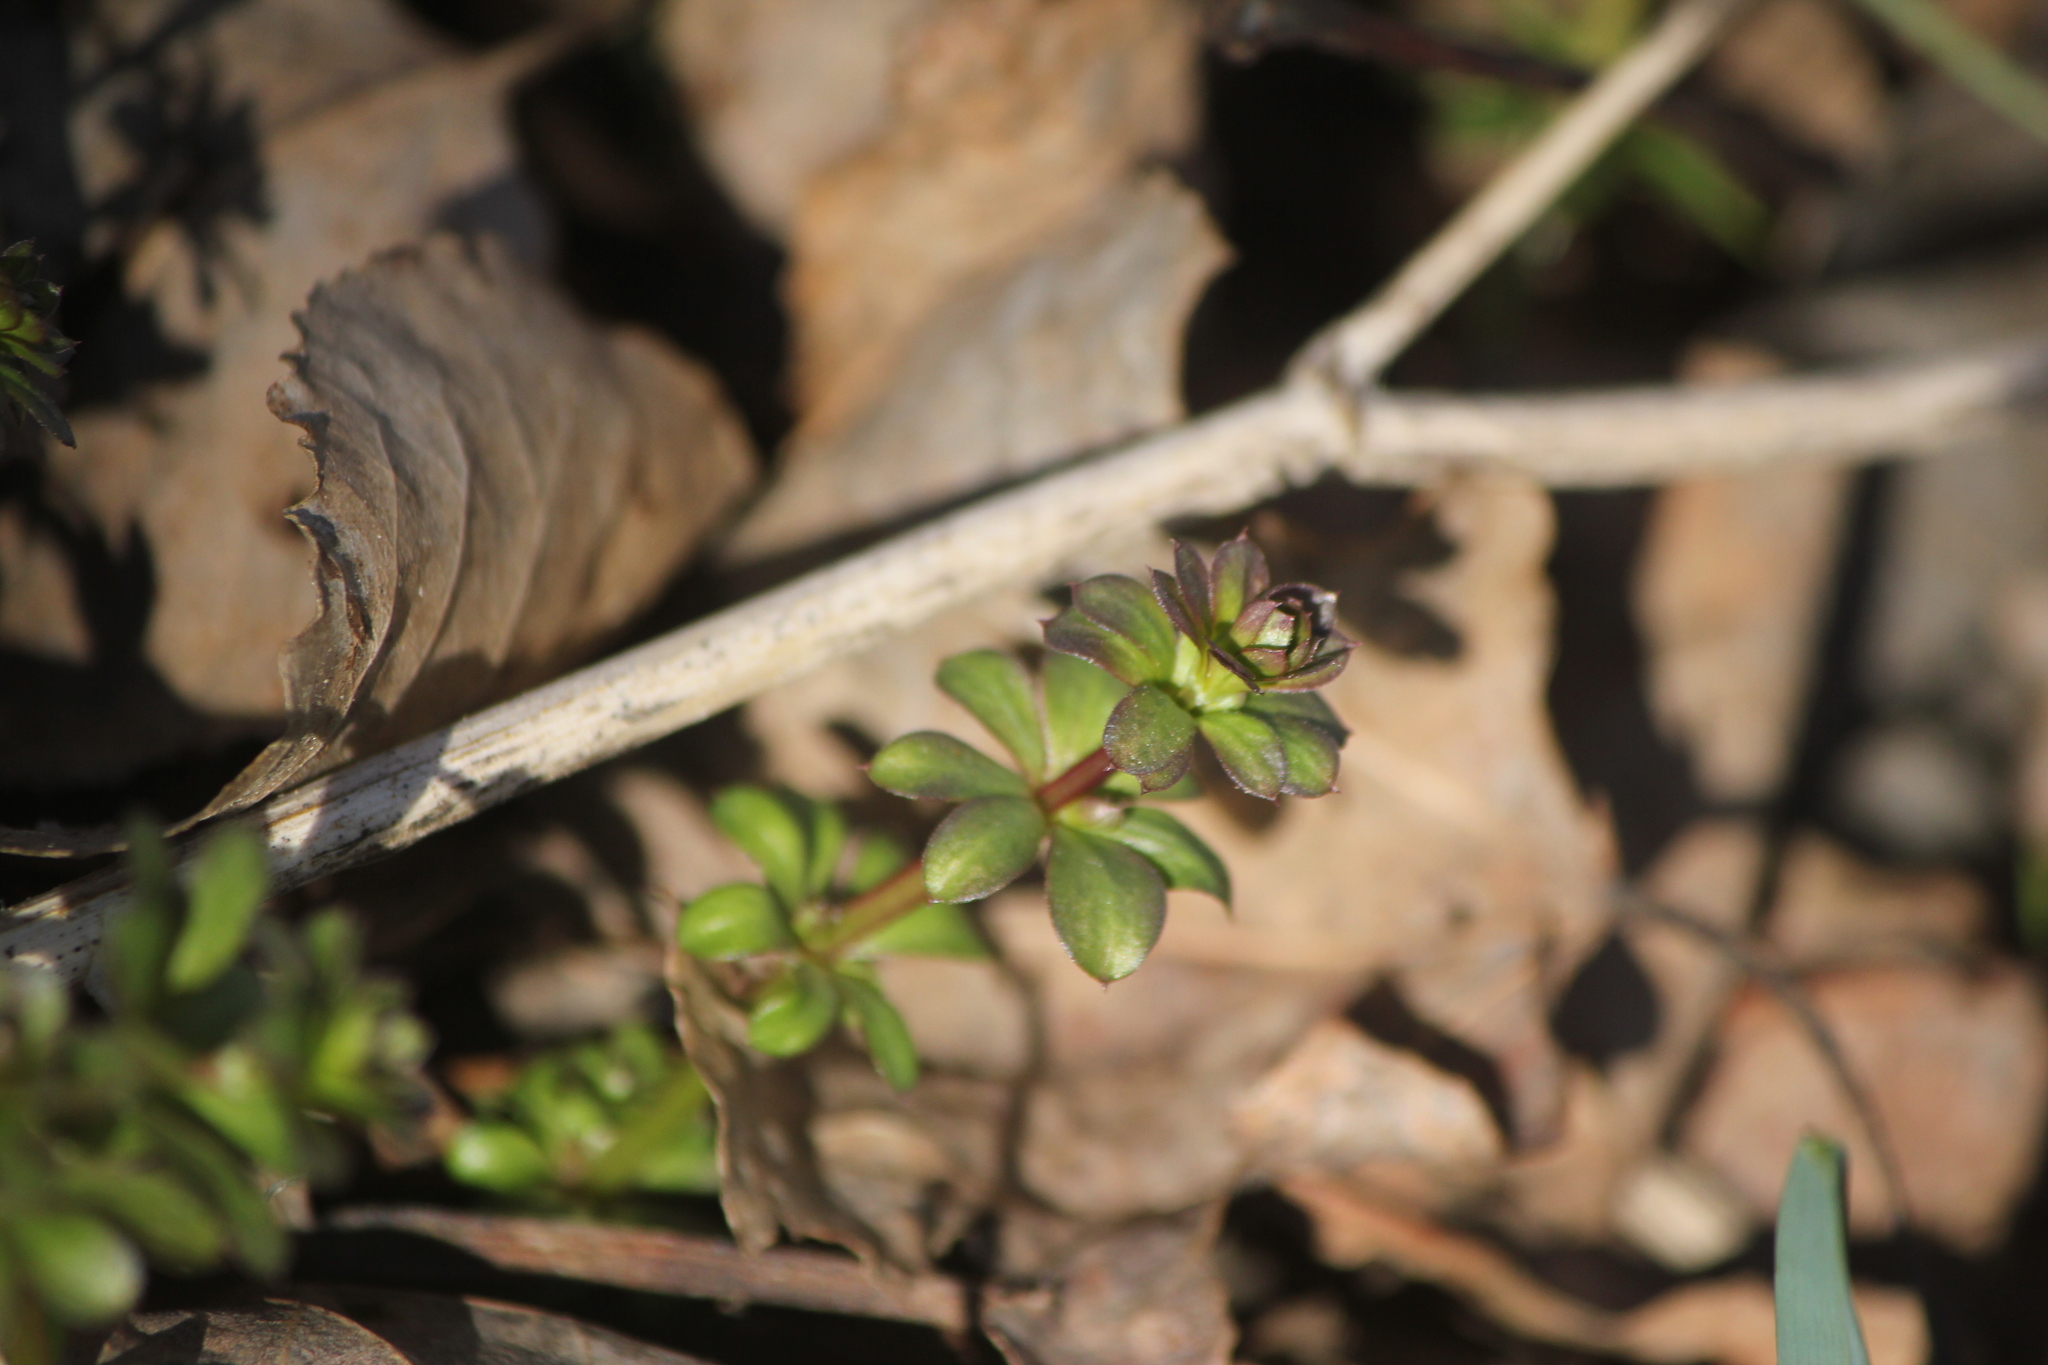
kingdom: Plantae
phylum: Tracheophyta
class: Magnoliopsida
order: Gentianales
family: Rubiaceae
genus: Galium
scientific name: Galium album
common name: White bedstraw
